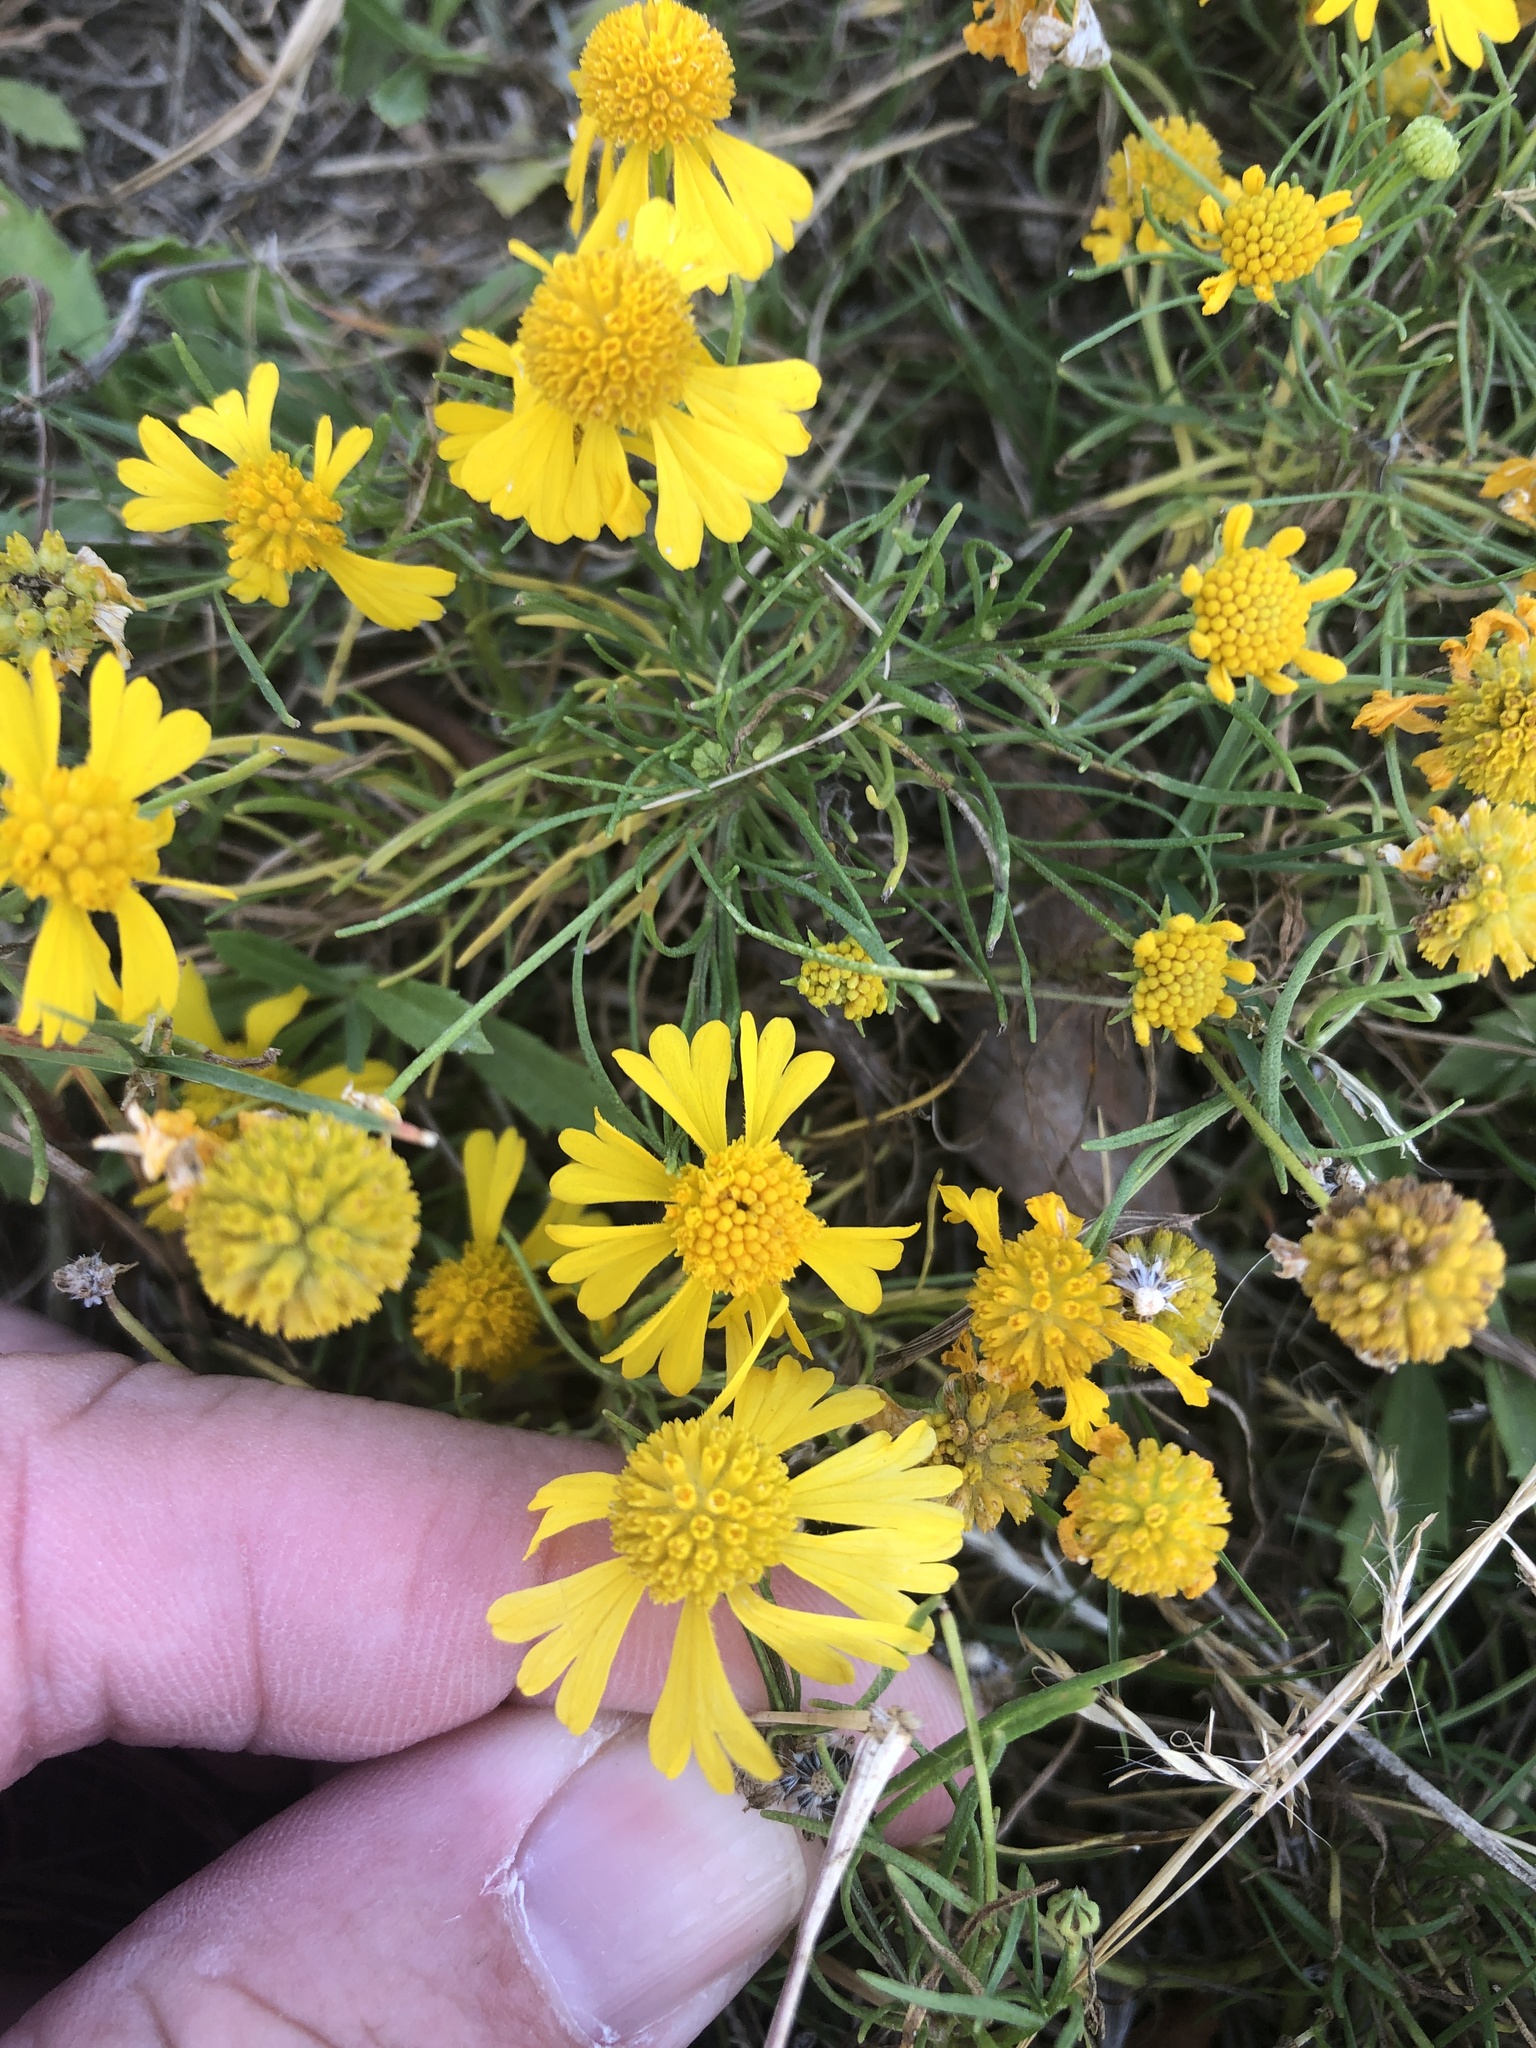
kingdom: Plantae
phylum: Tracheophyta
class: Magnoliopsida
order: Asterales
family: Asteraceae
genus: Helenium
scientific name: Helenium amarum
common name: Bitter sneezeweed
